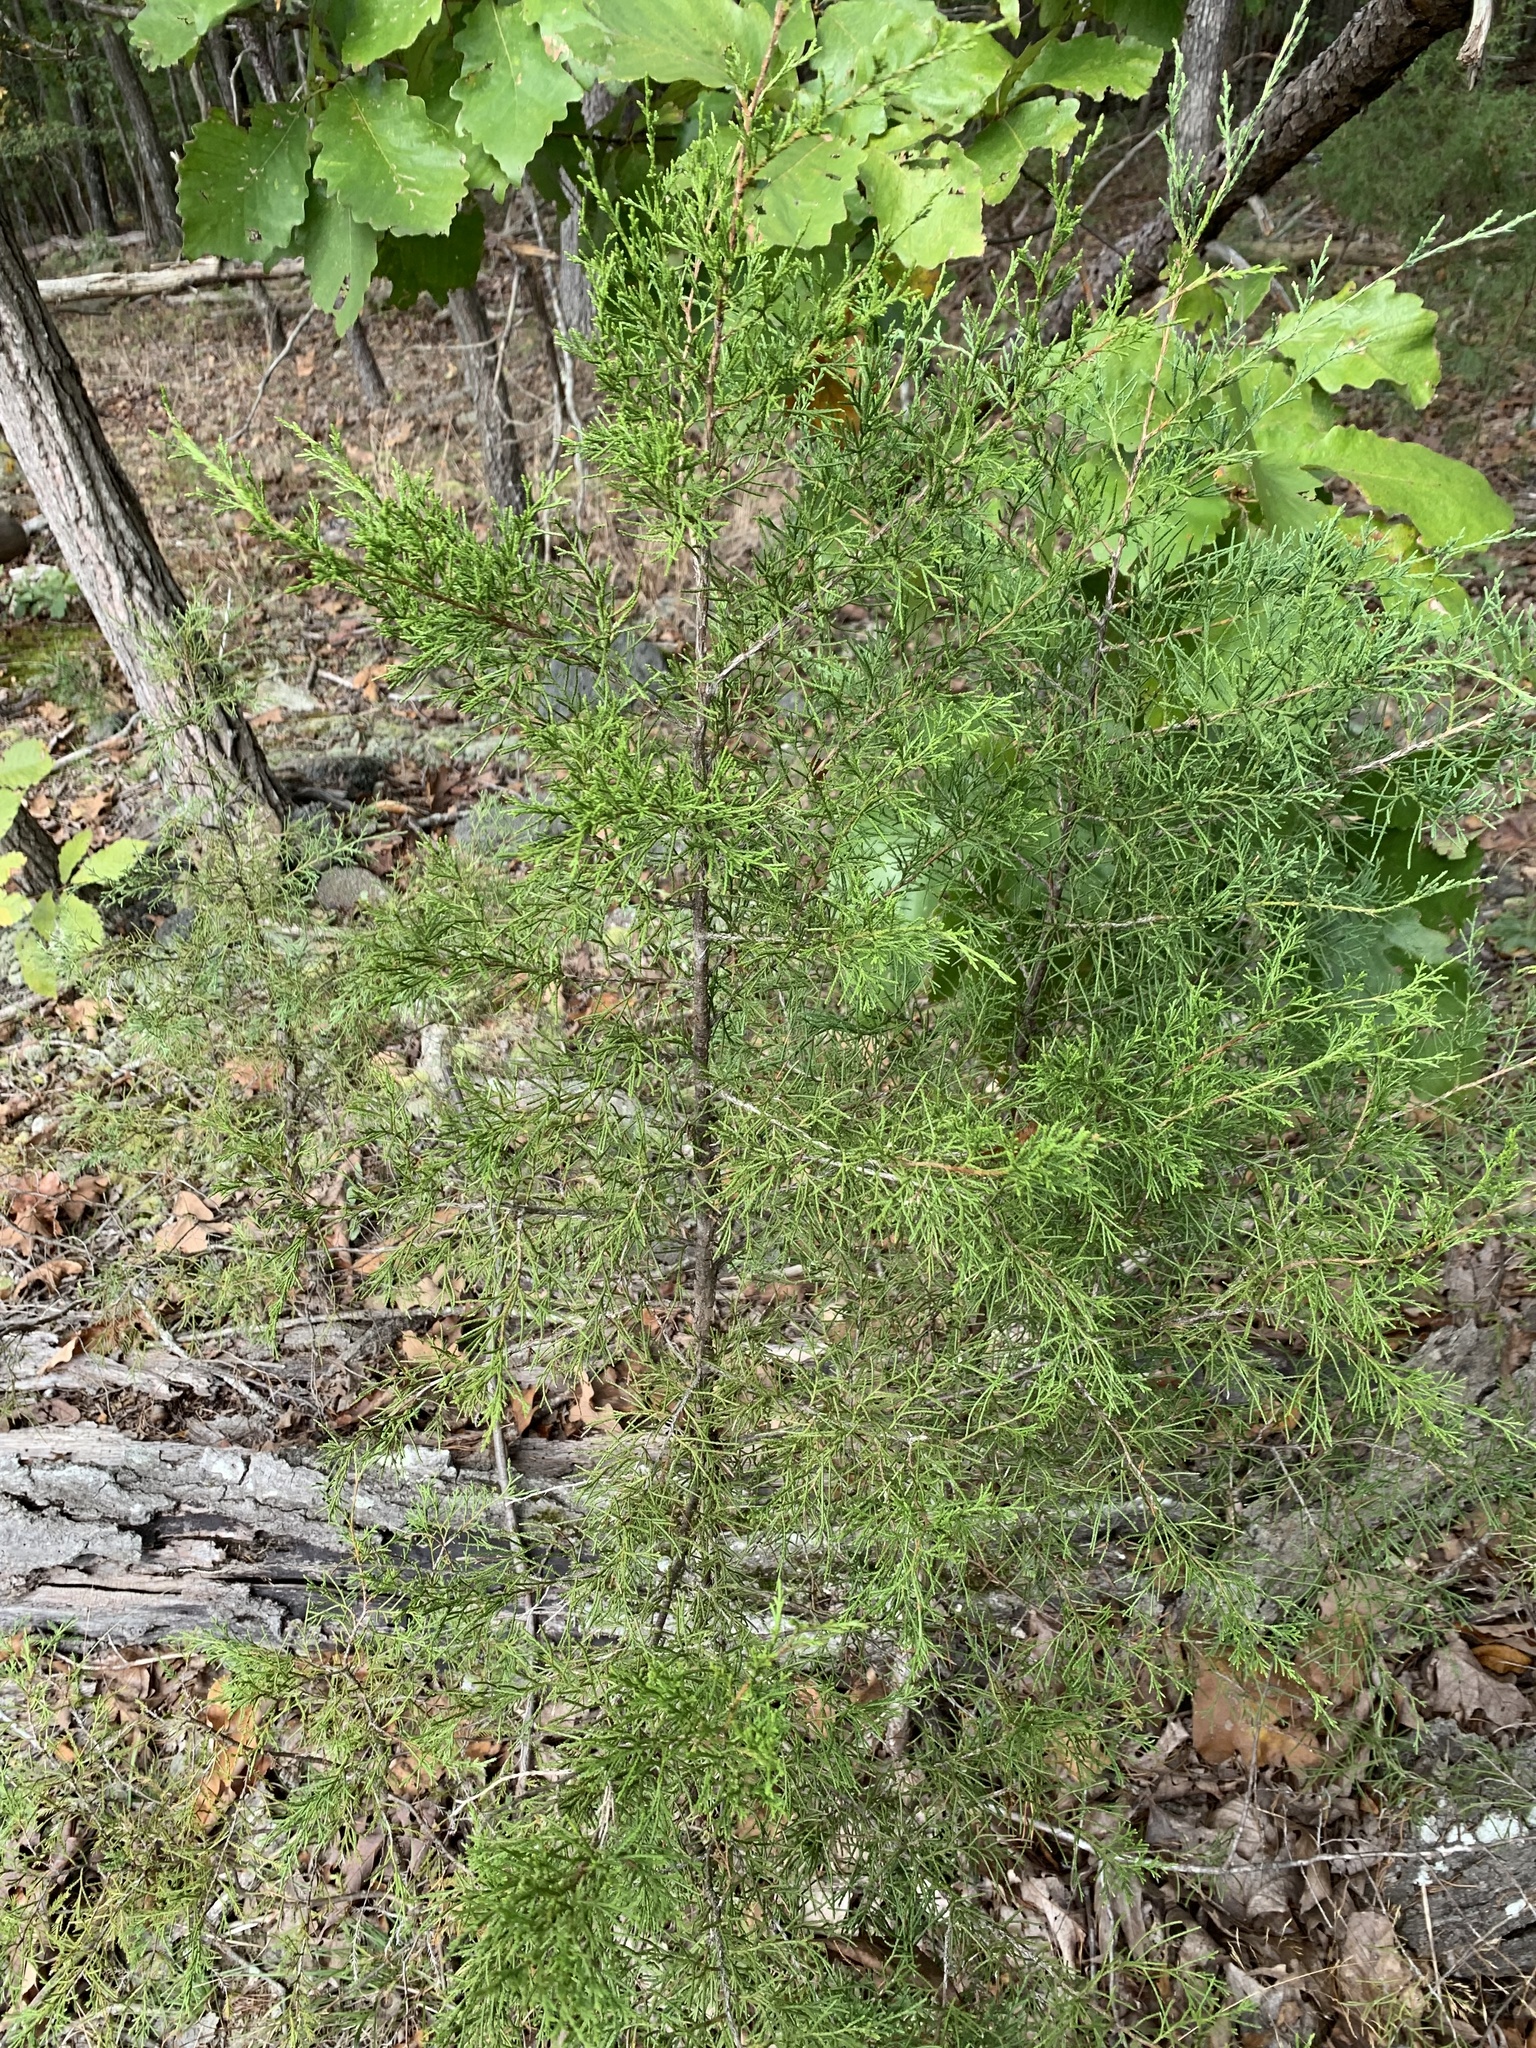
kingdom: Plantae
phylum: Tracheophyta
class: Pinopsida
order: Pinales
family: Cupressaceae
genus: Juniperus
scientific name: Juniperus virginiana
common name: Red juniper
